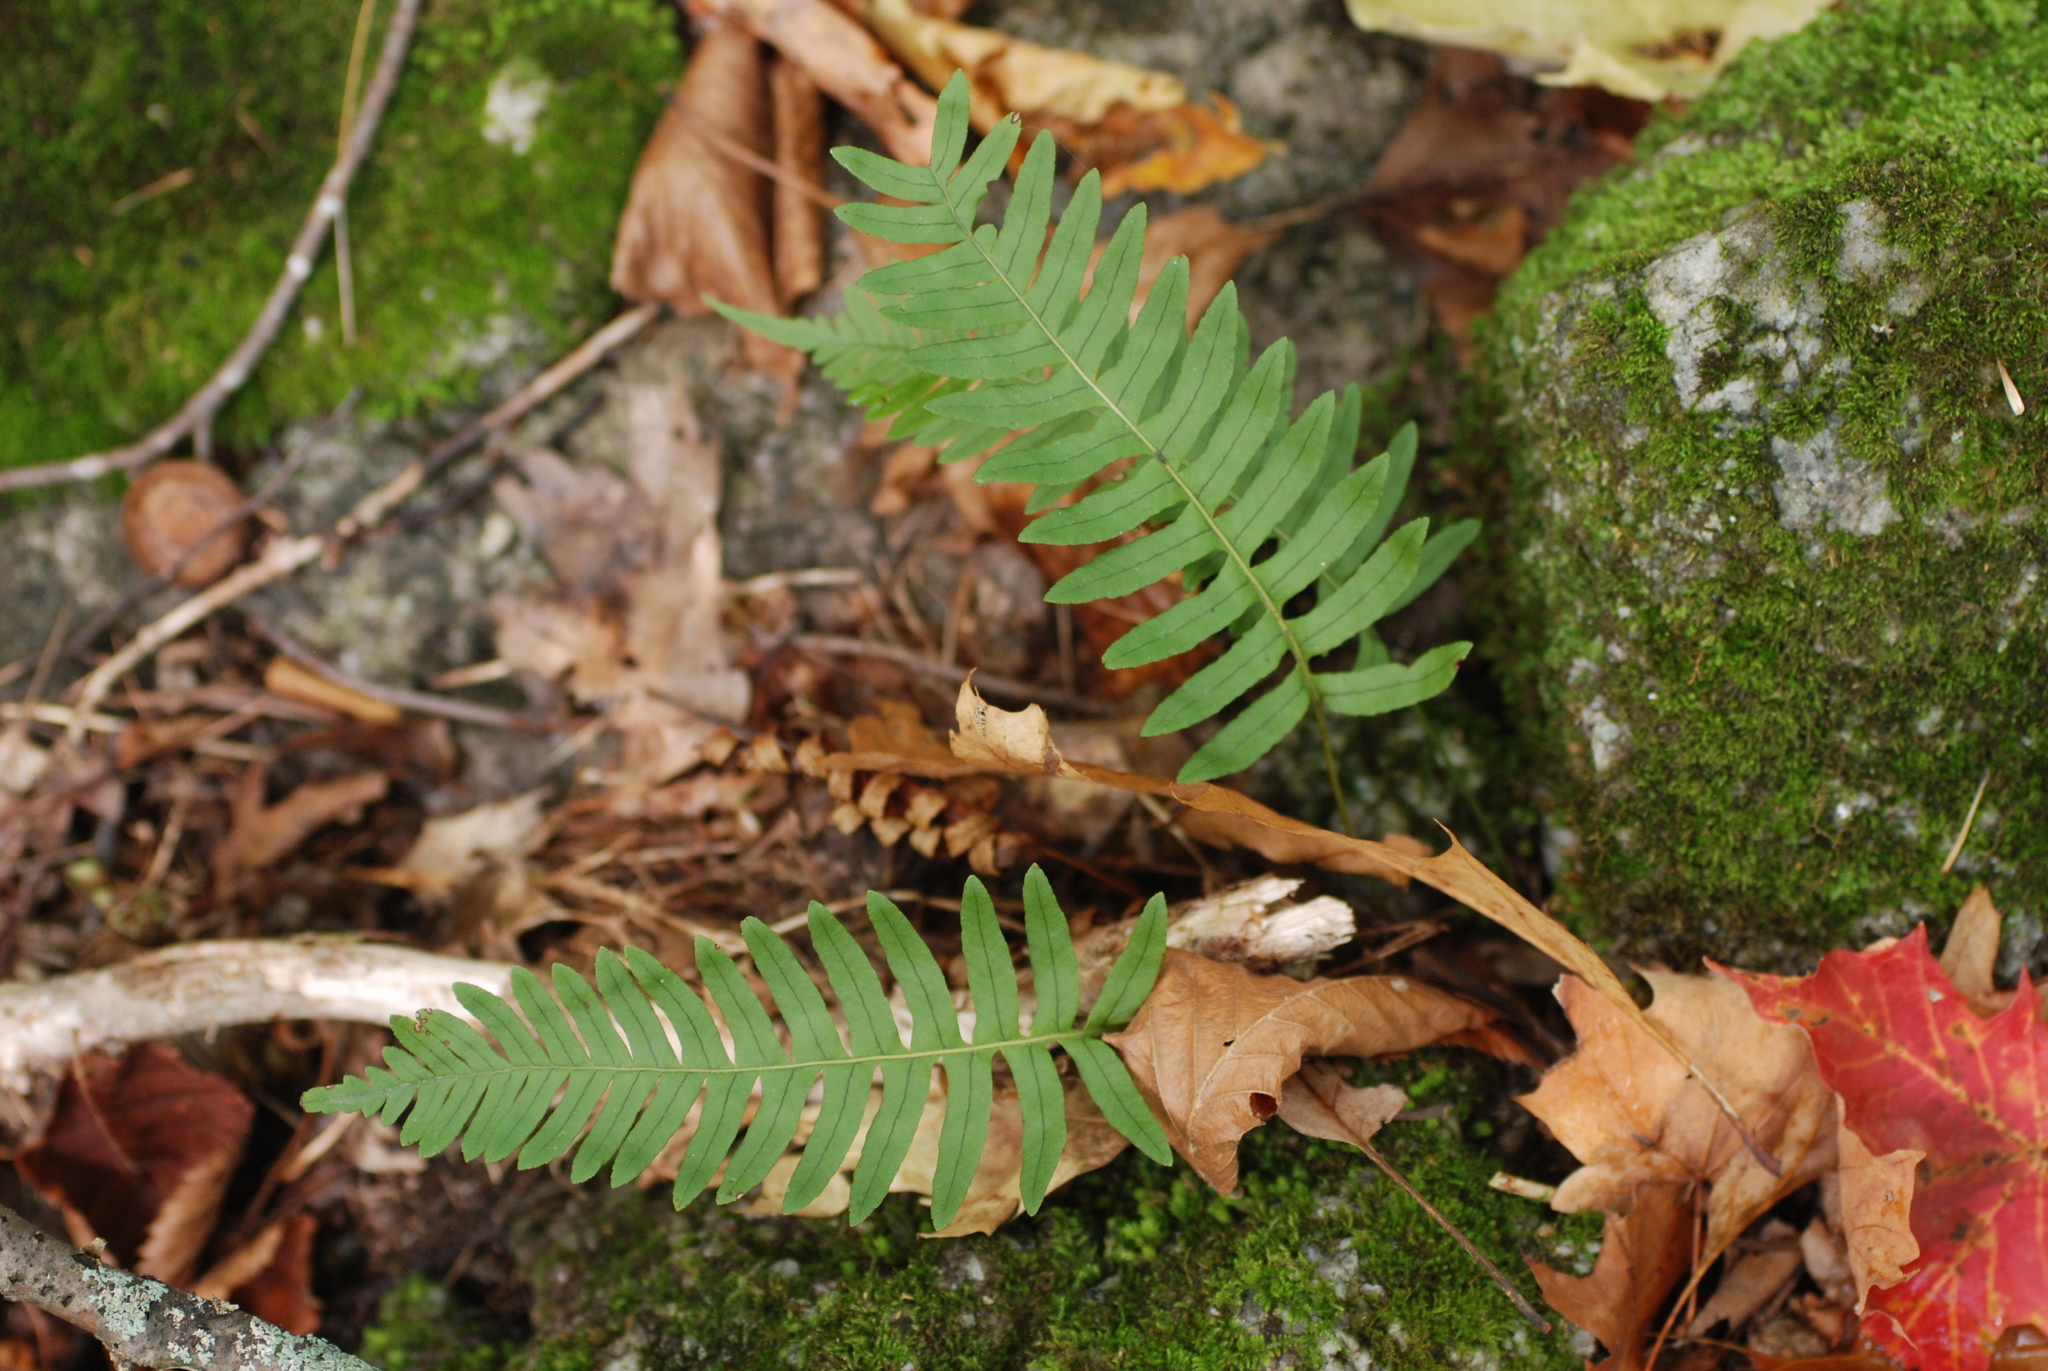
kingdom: Plantae
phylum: Tracheophyta
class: Polypodiopsida
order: Polypodiales
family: Polypodiaceae
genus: Polypodium
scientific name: Polypodium virginianum
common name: American wall fern
